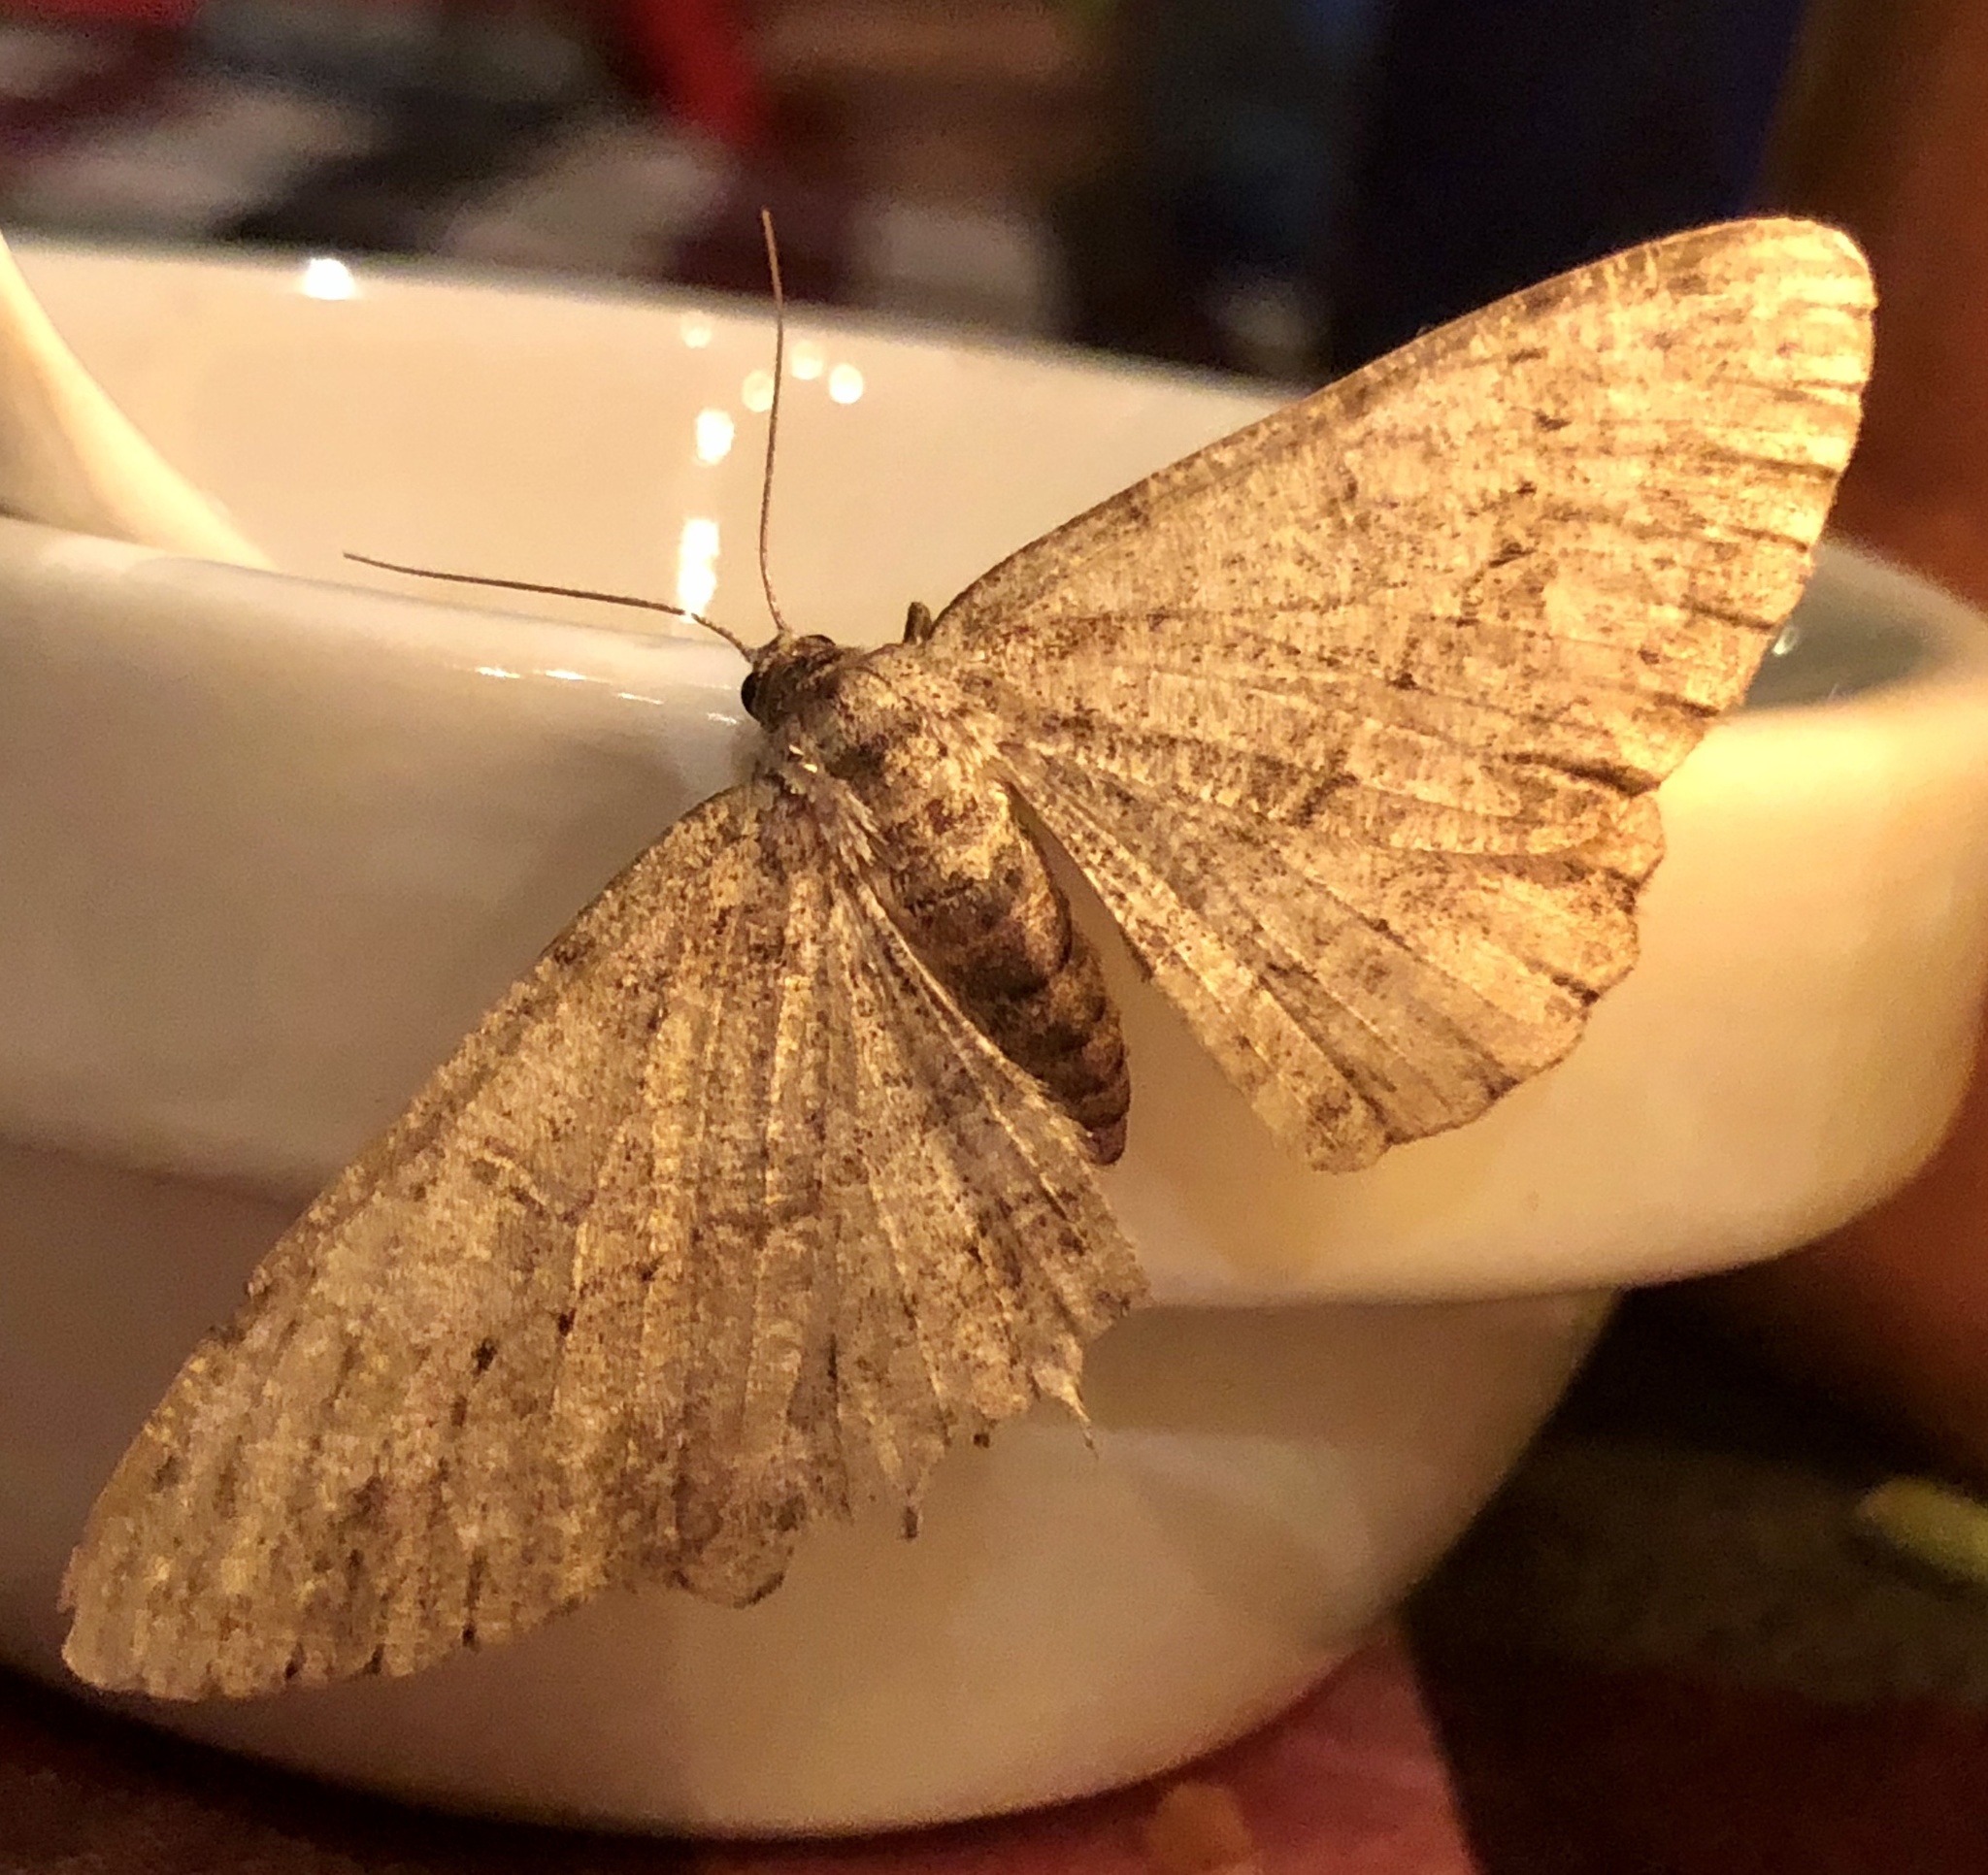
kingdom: Animalia
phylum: Arthropoda
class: Insecta
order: Lepidoptera
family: Geometridae
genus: Hypomecis
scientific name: Hypomecis punctinalis
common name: Pale oak beauty
